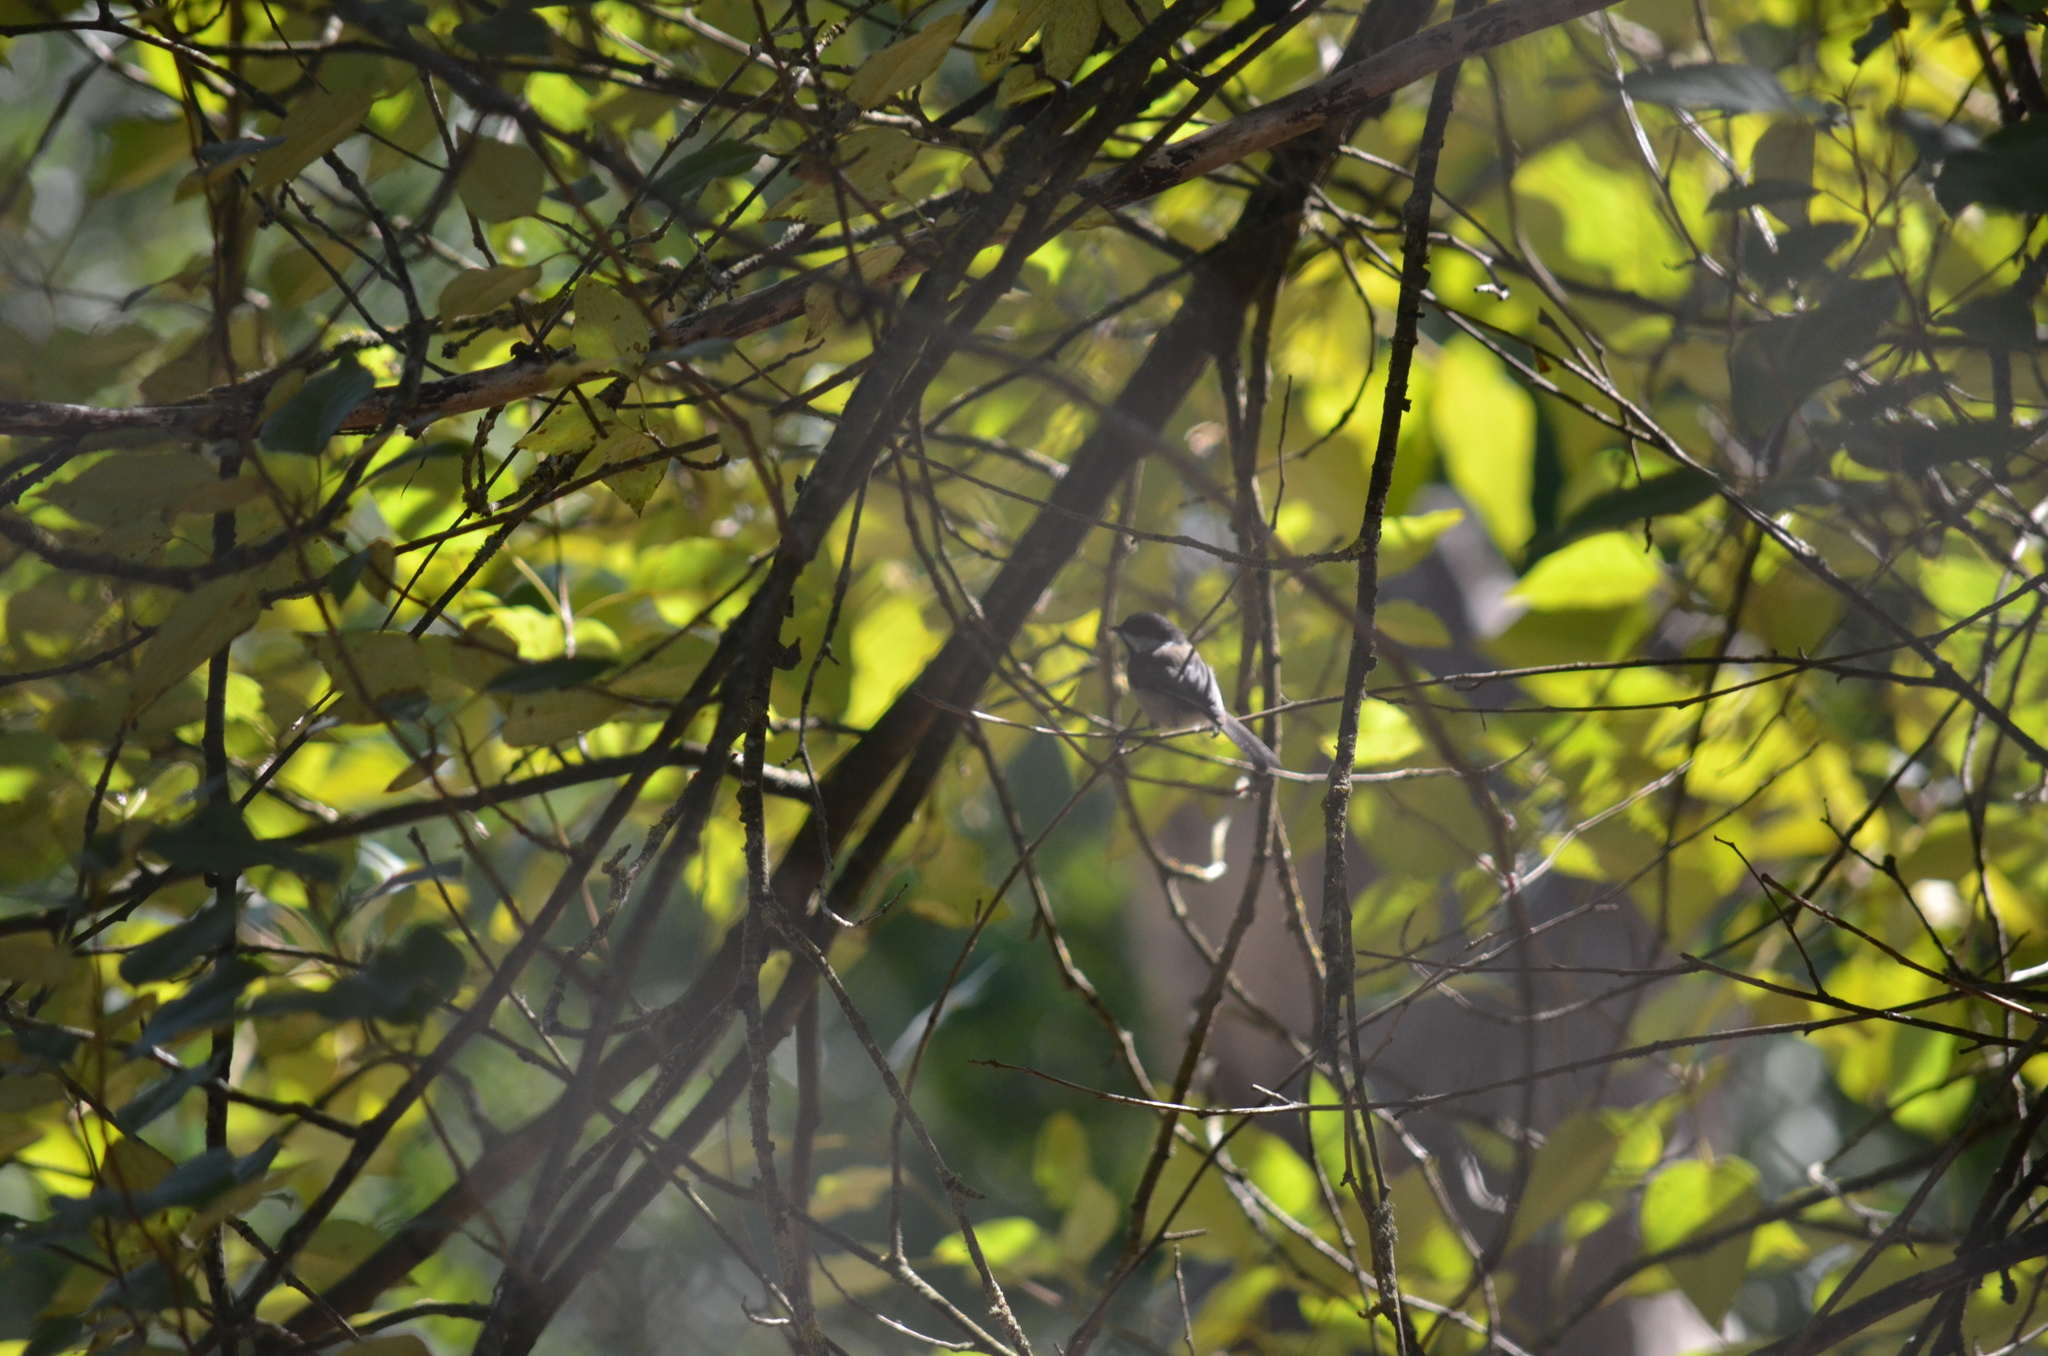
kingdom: Animalia
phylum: Chordata
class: Aves
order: Passeriformes
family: Paridae
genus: Poecile
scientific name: Poecile atricapillus
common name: Black-capped chickadee
